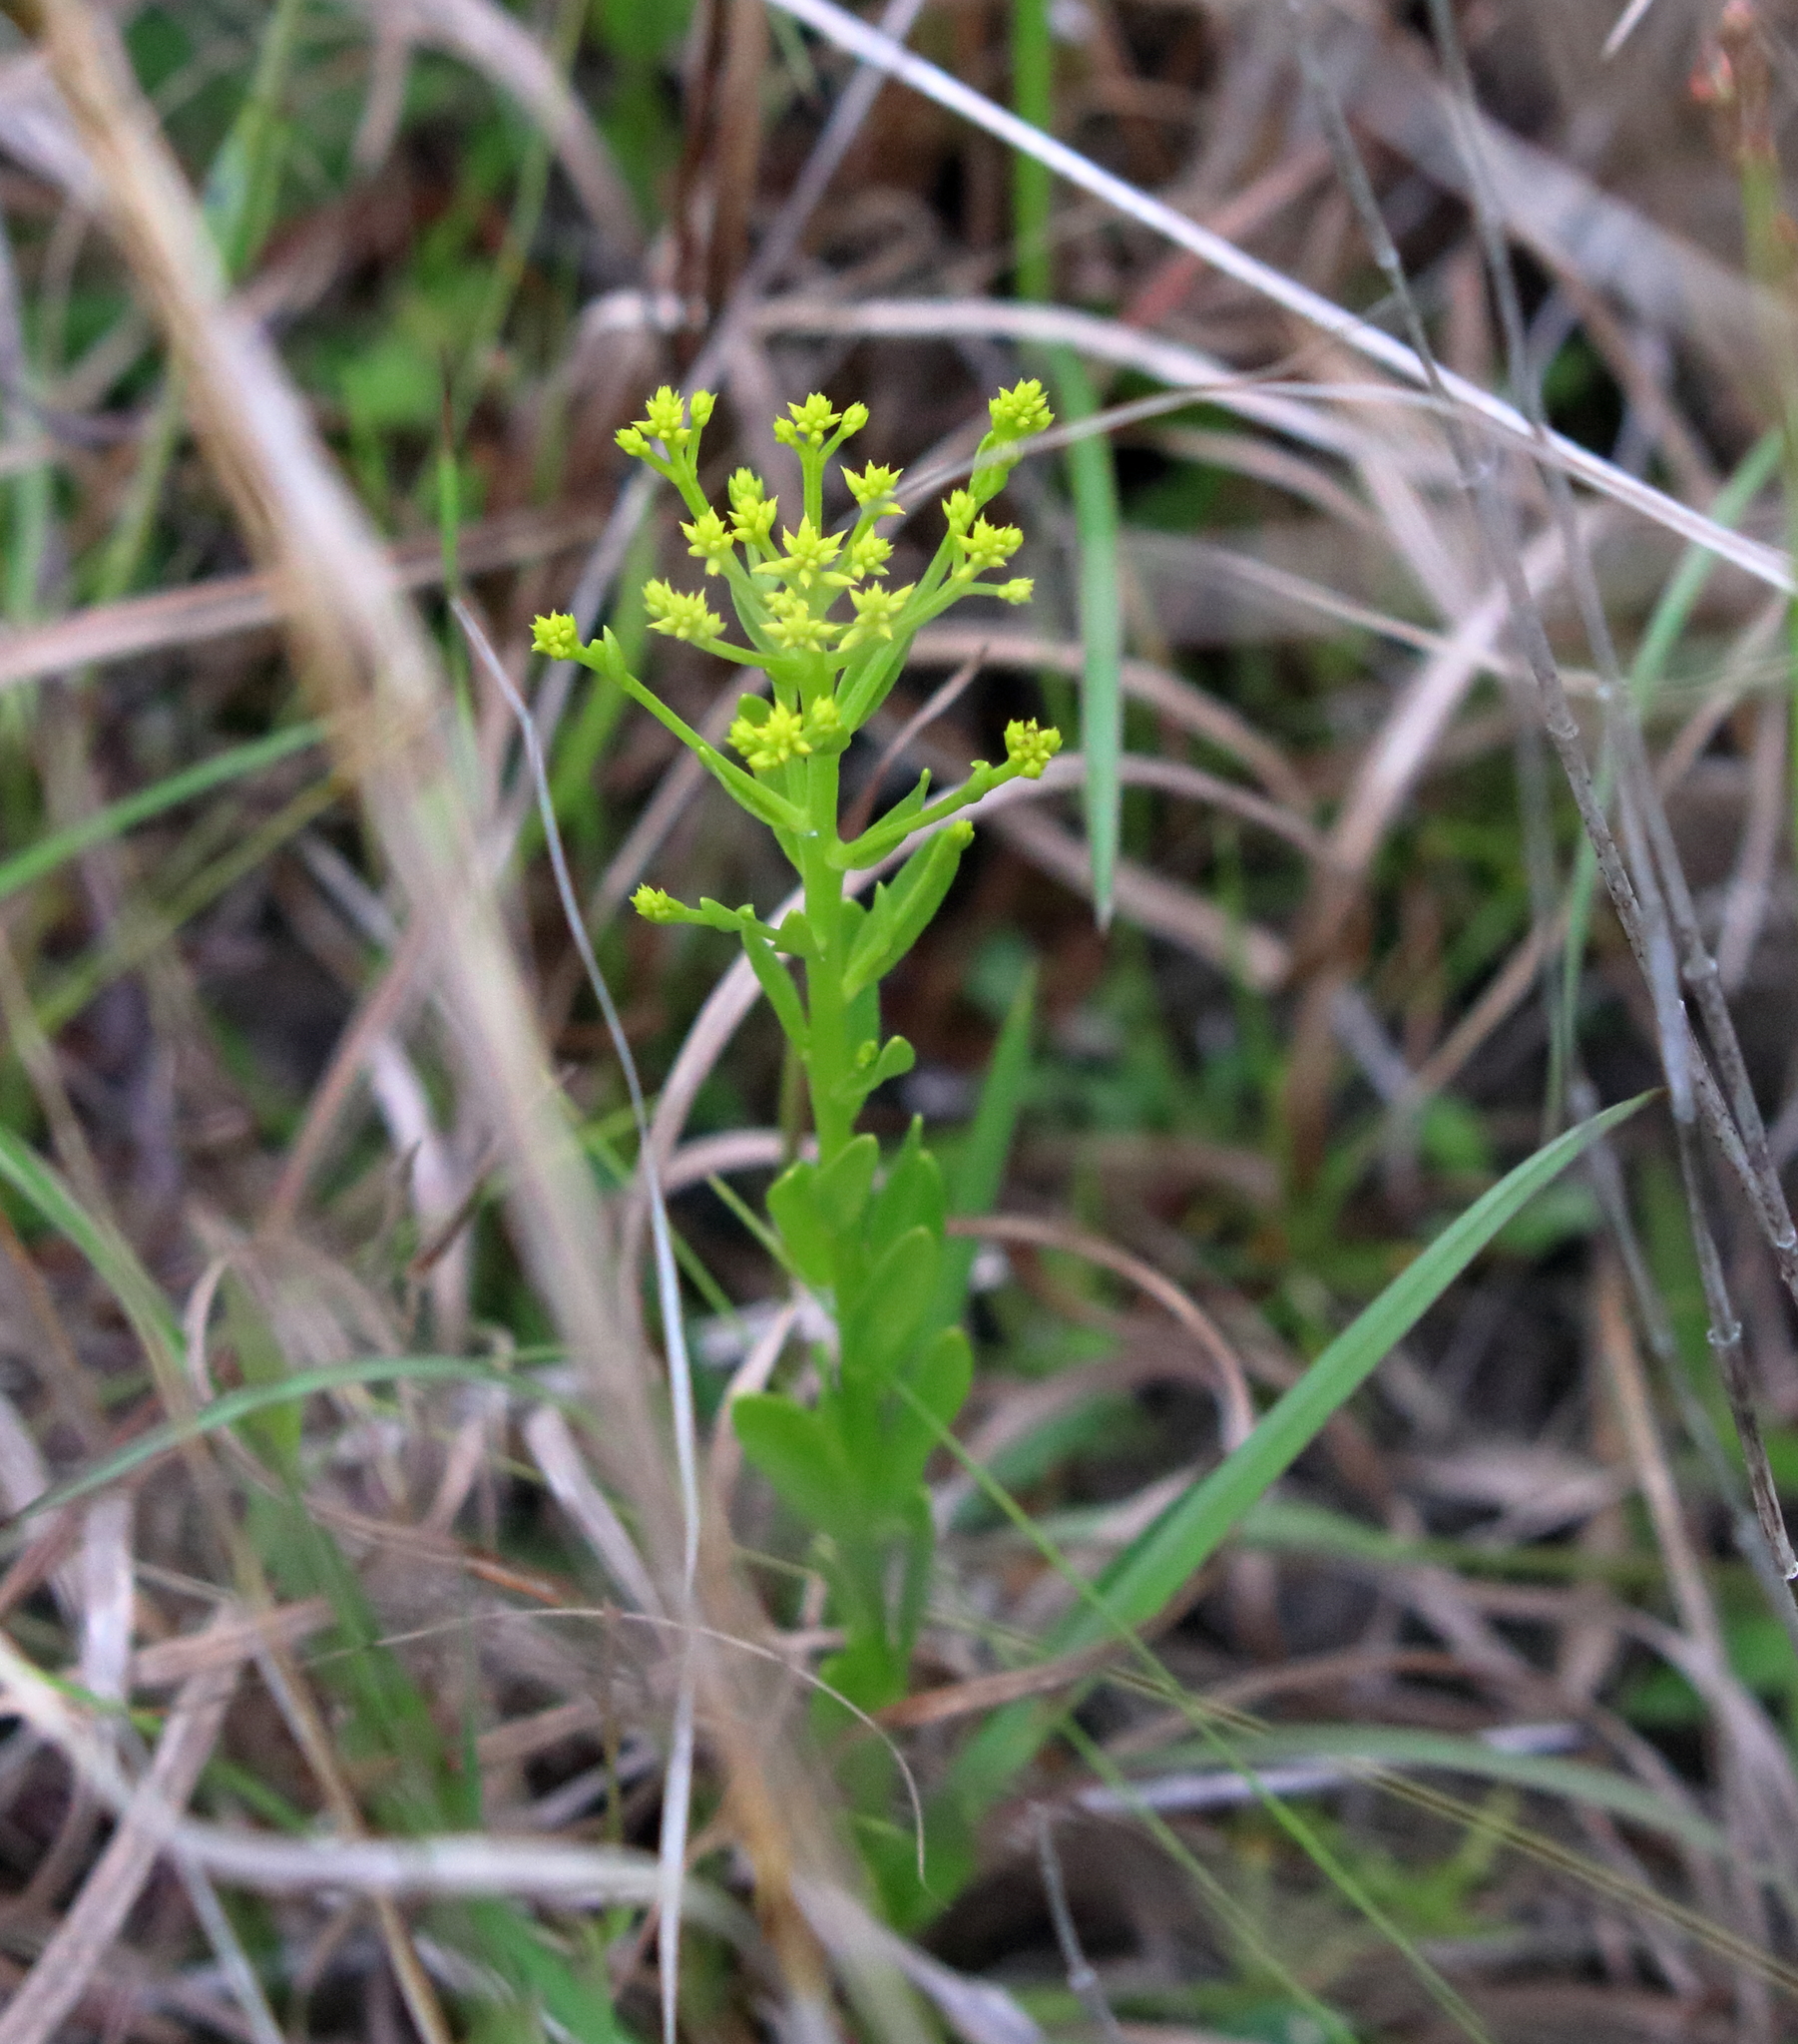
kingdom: Plantae
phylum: Tracheophyta
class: Magnoliopsida
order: Fabales
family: Polygalaceae
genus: Polygala
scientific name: Polygala ramosa
